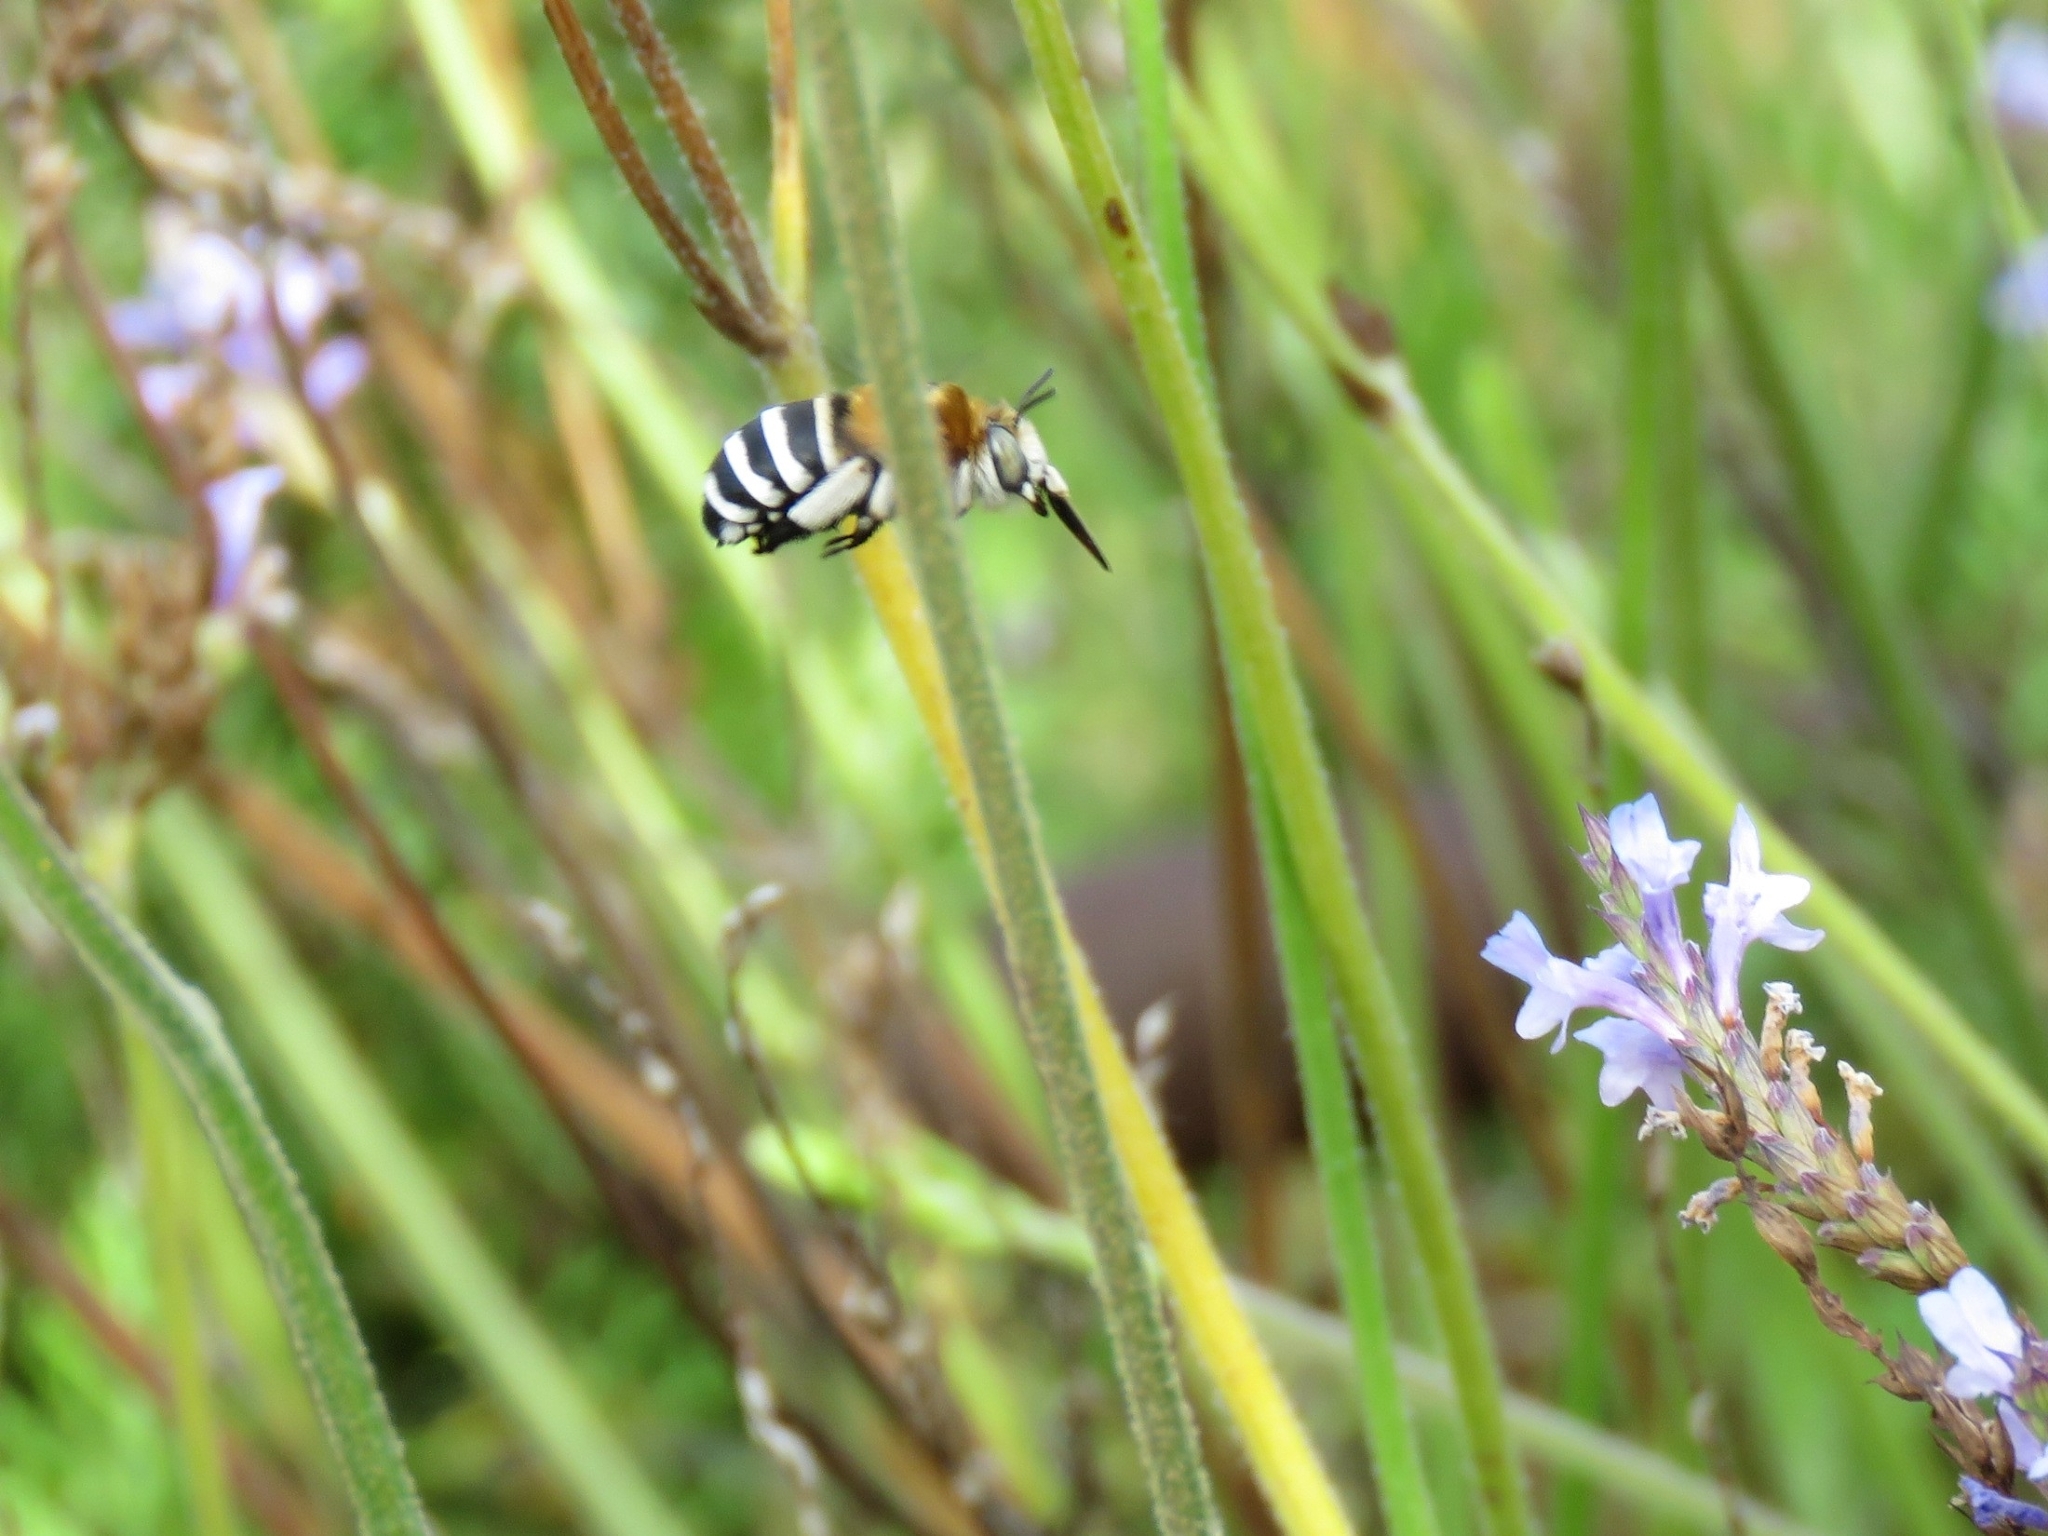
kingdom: Animalia
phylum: Arthropoda
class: Insecta
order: Hymenoptera
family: Apidae
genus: Amegilla
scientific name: Amegilla quadrifasciata
